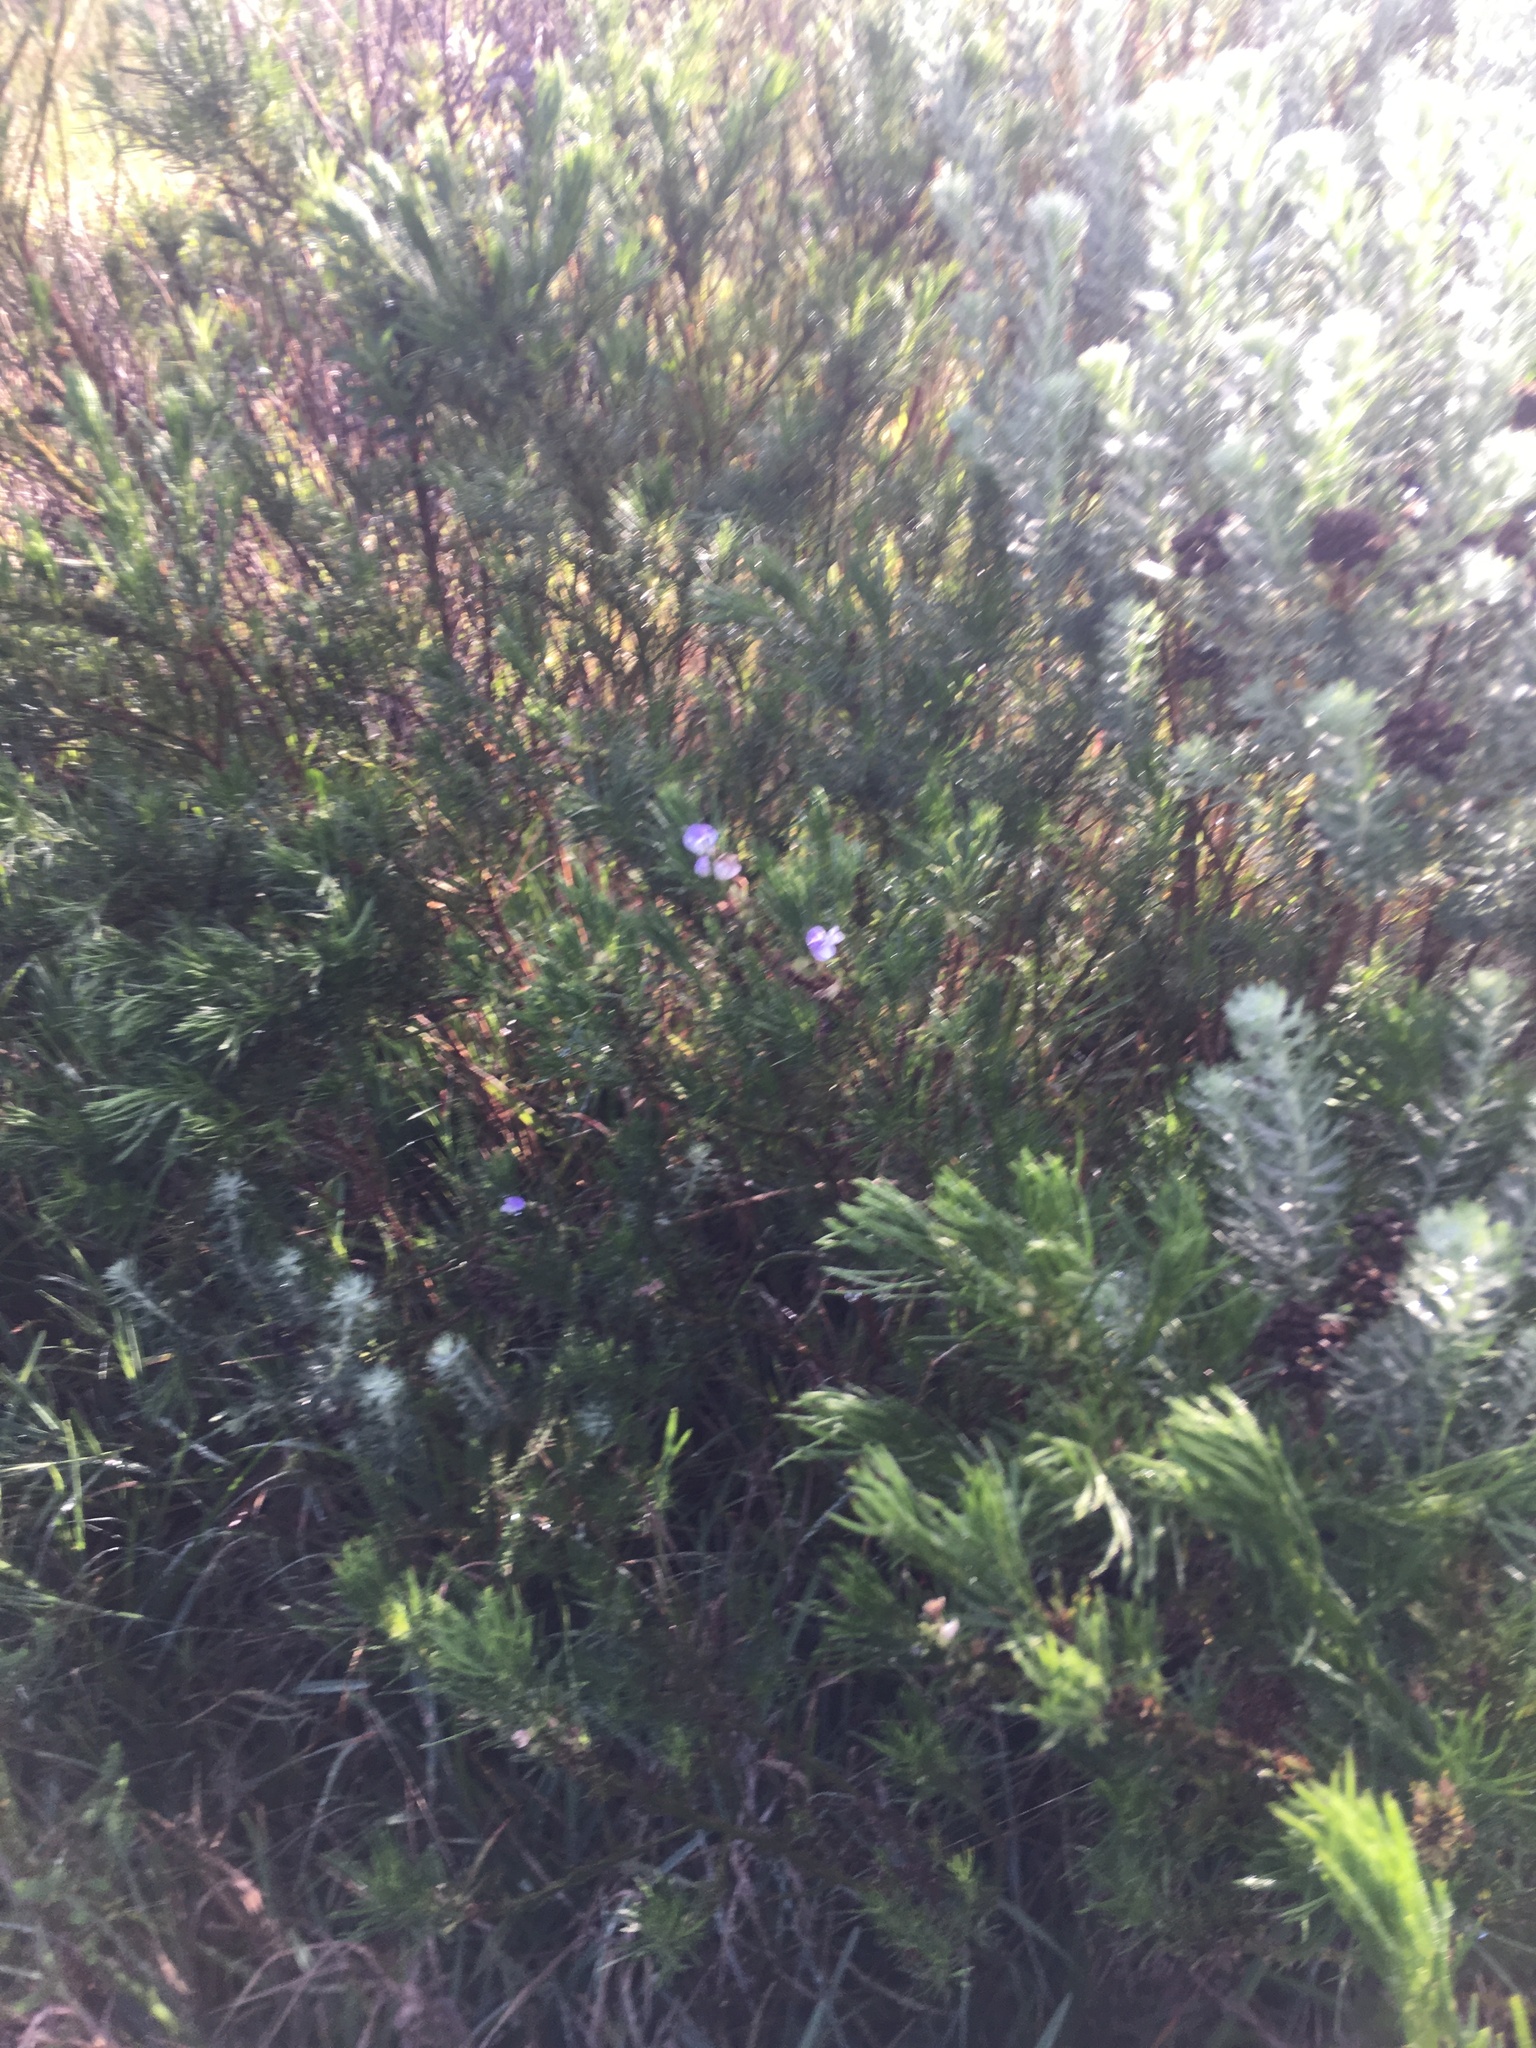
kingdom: Plantae
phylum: Tracheophyta
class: Magnoliopsida
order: Fabales
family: Fabaceae
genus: Psoralea
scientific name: Psoralea pinnata
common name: African scurfpea
